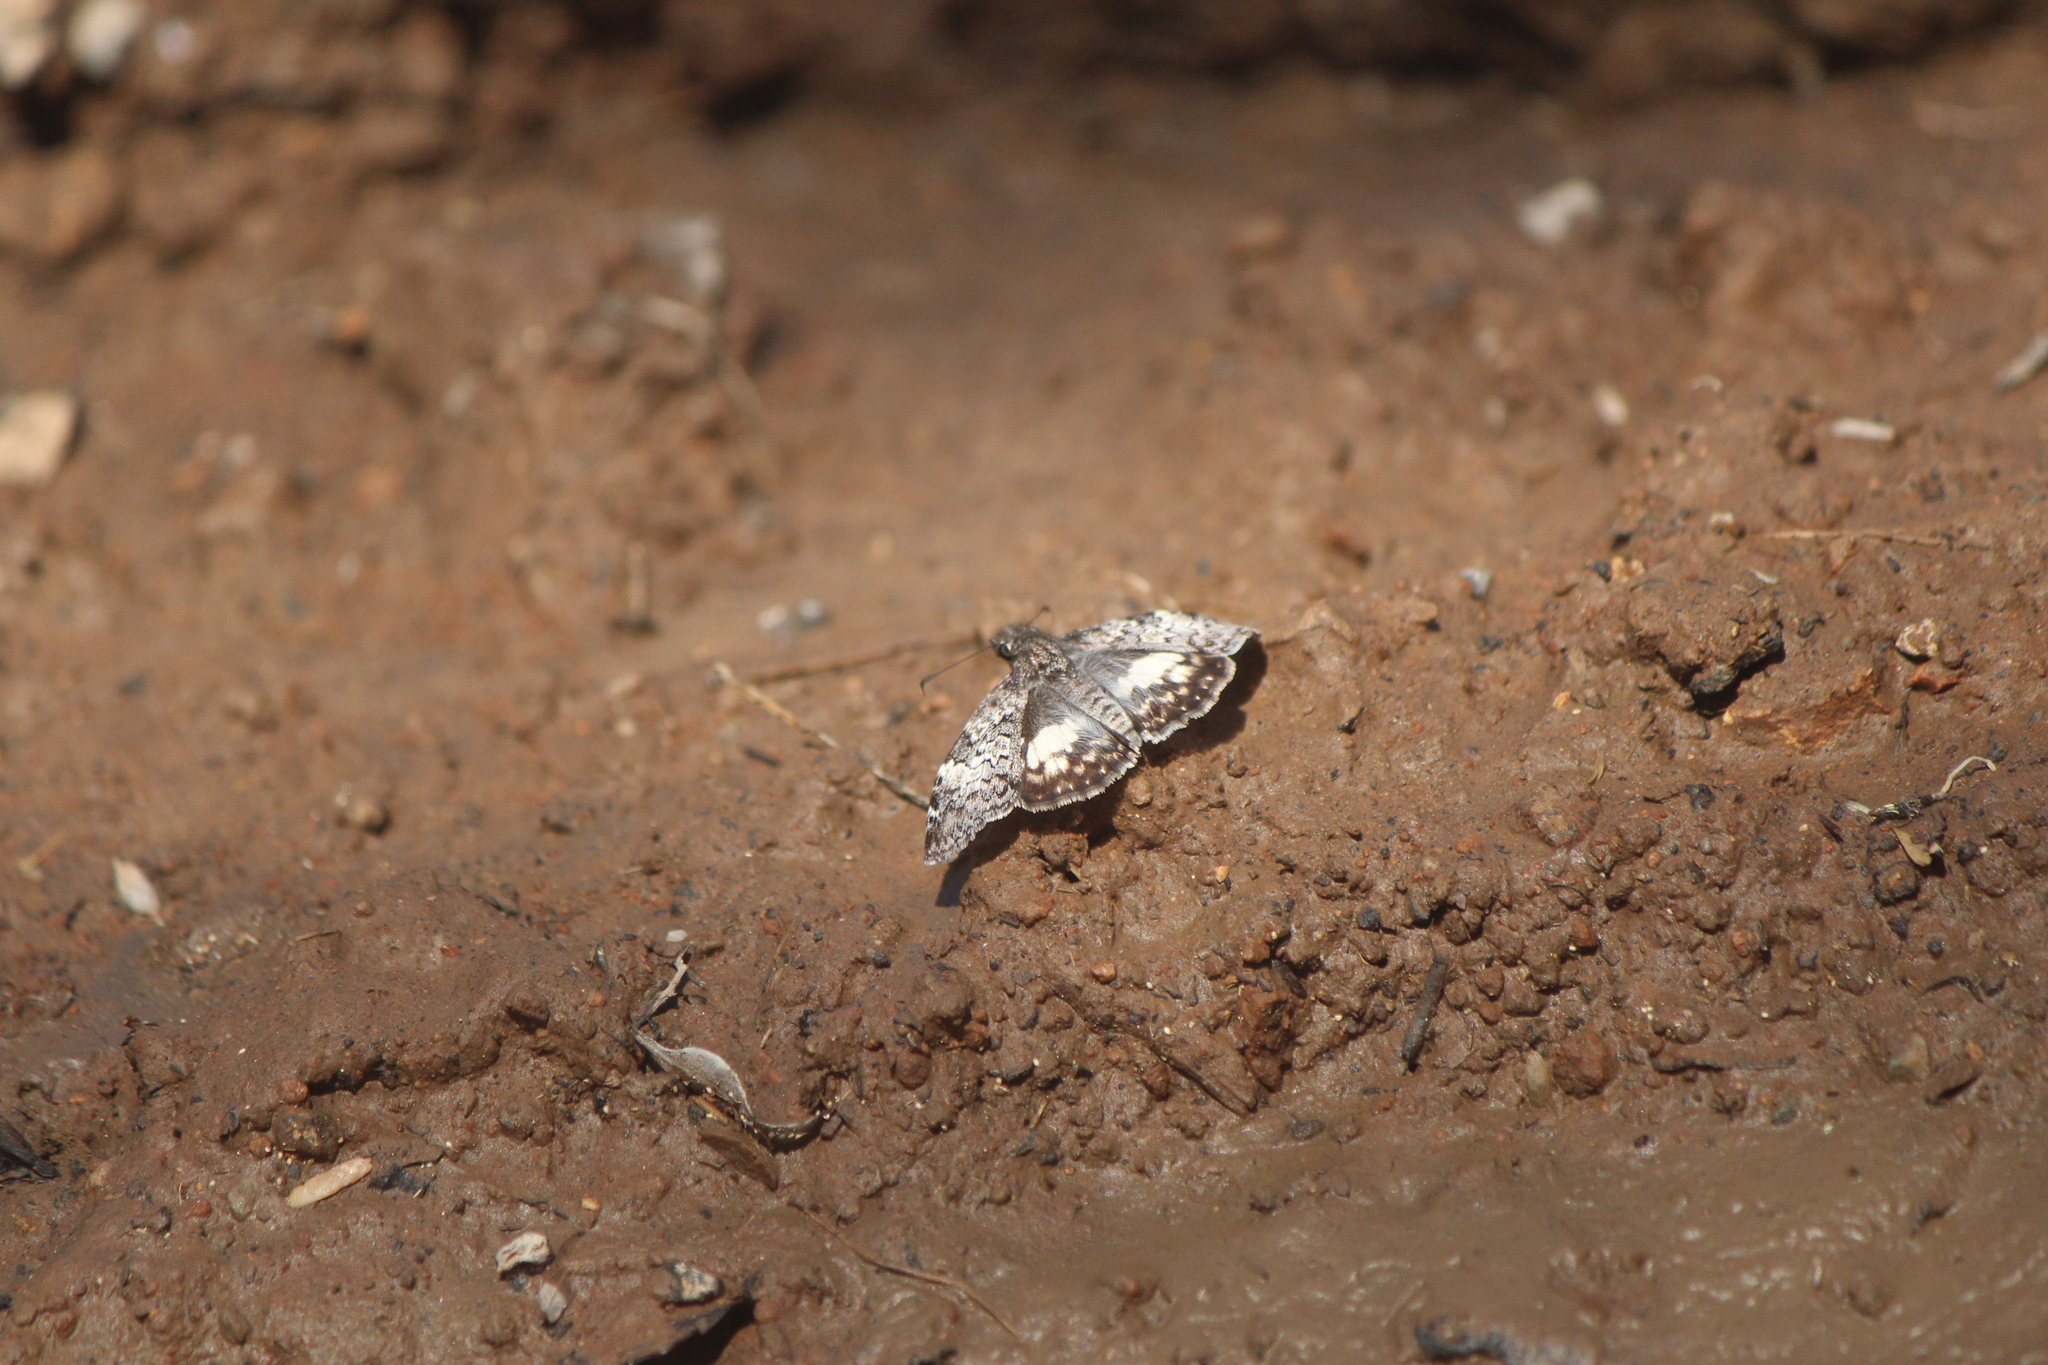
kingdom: Animalia
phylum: Arthropoda
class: Insecta
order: Lepidoptera
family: Hesperiidae
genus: Chiothion
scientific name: Chiothion georgina
